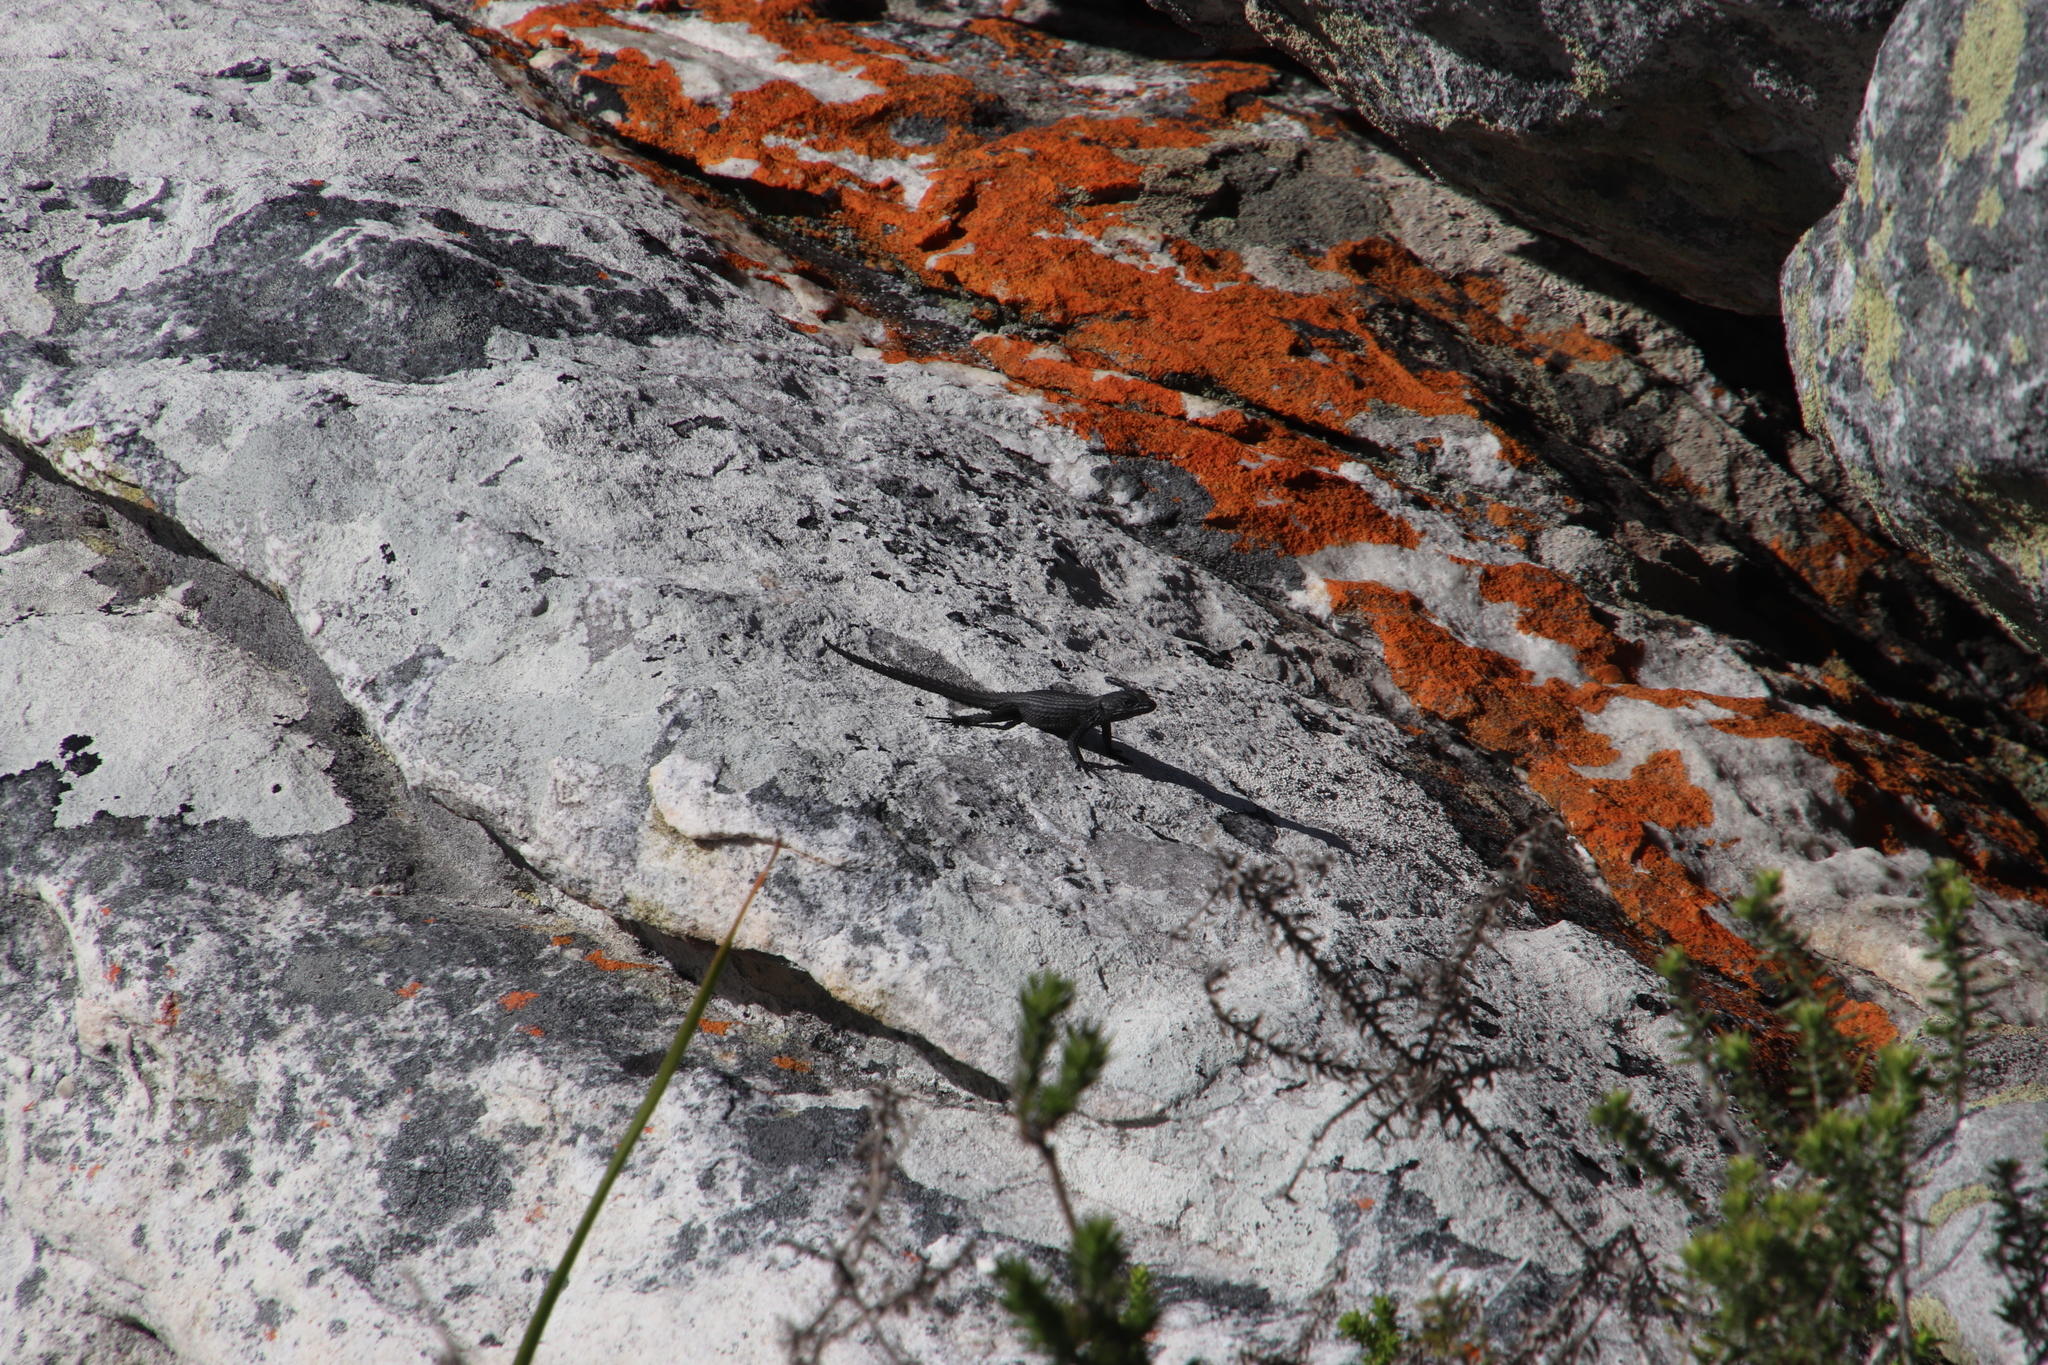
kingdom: Animalia
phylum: Chordata
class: Squamata
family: Cordylidae
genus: Cordylus
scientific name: Cordylus niger
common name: Black girdled lizard
